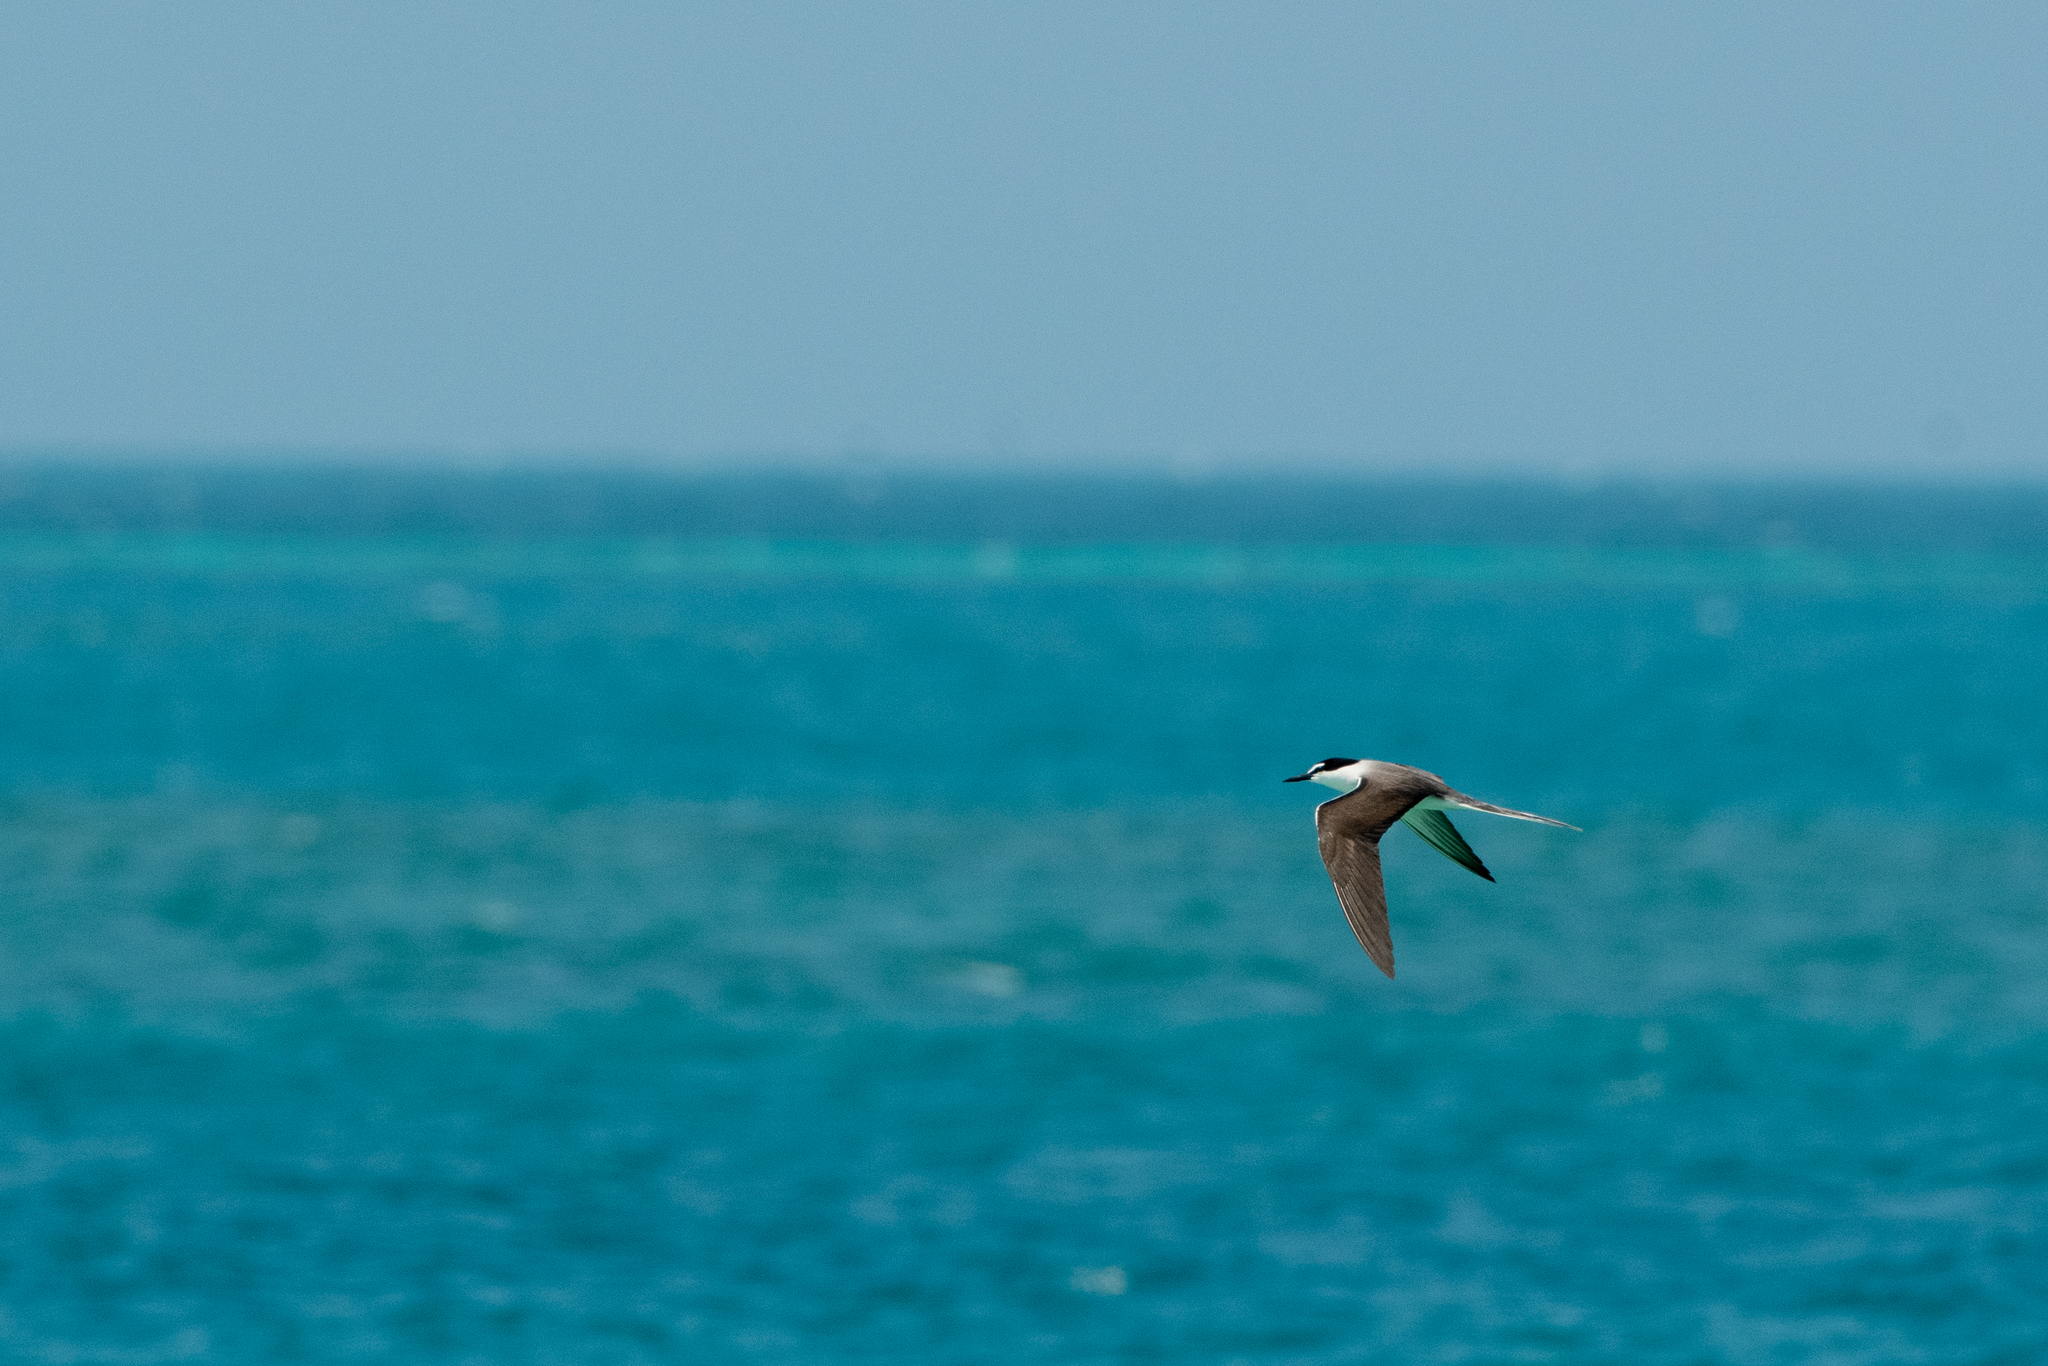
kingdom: Animalia
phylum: Chordata
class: Aves
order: Charadriiformes
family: Laridae
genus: Onychoprion
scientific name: Onychoprion anaethetus
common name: Bridled tern
